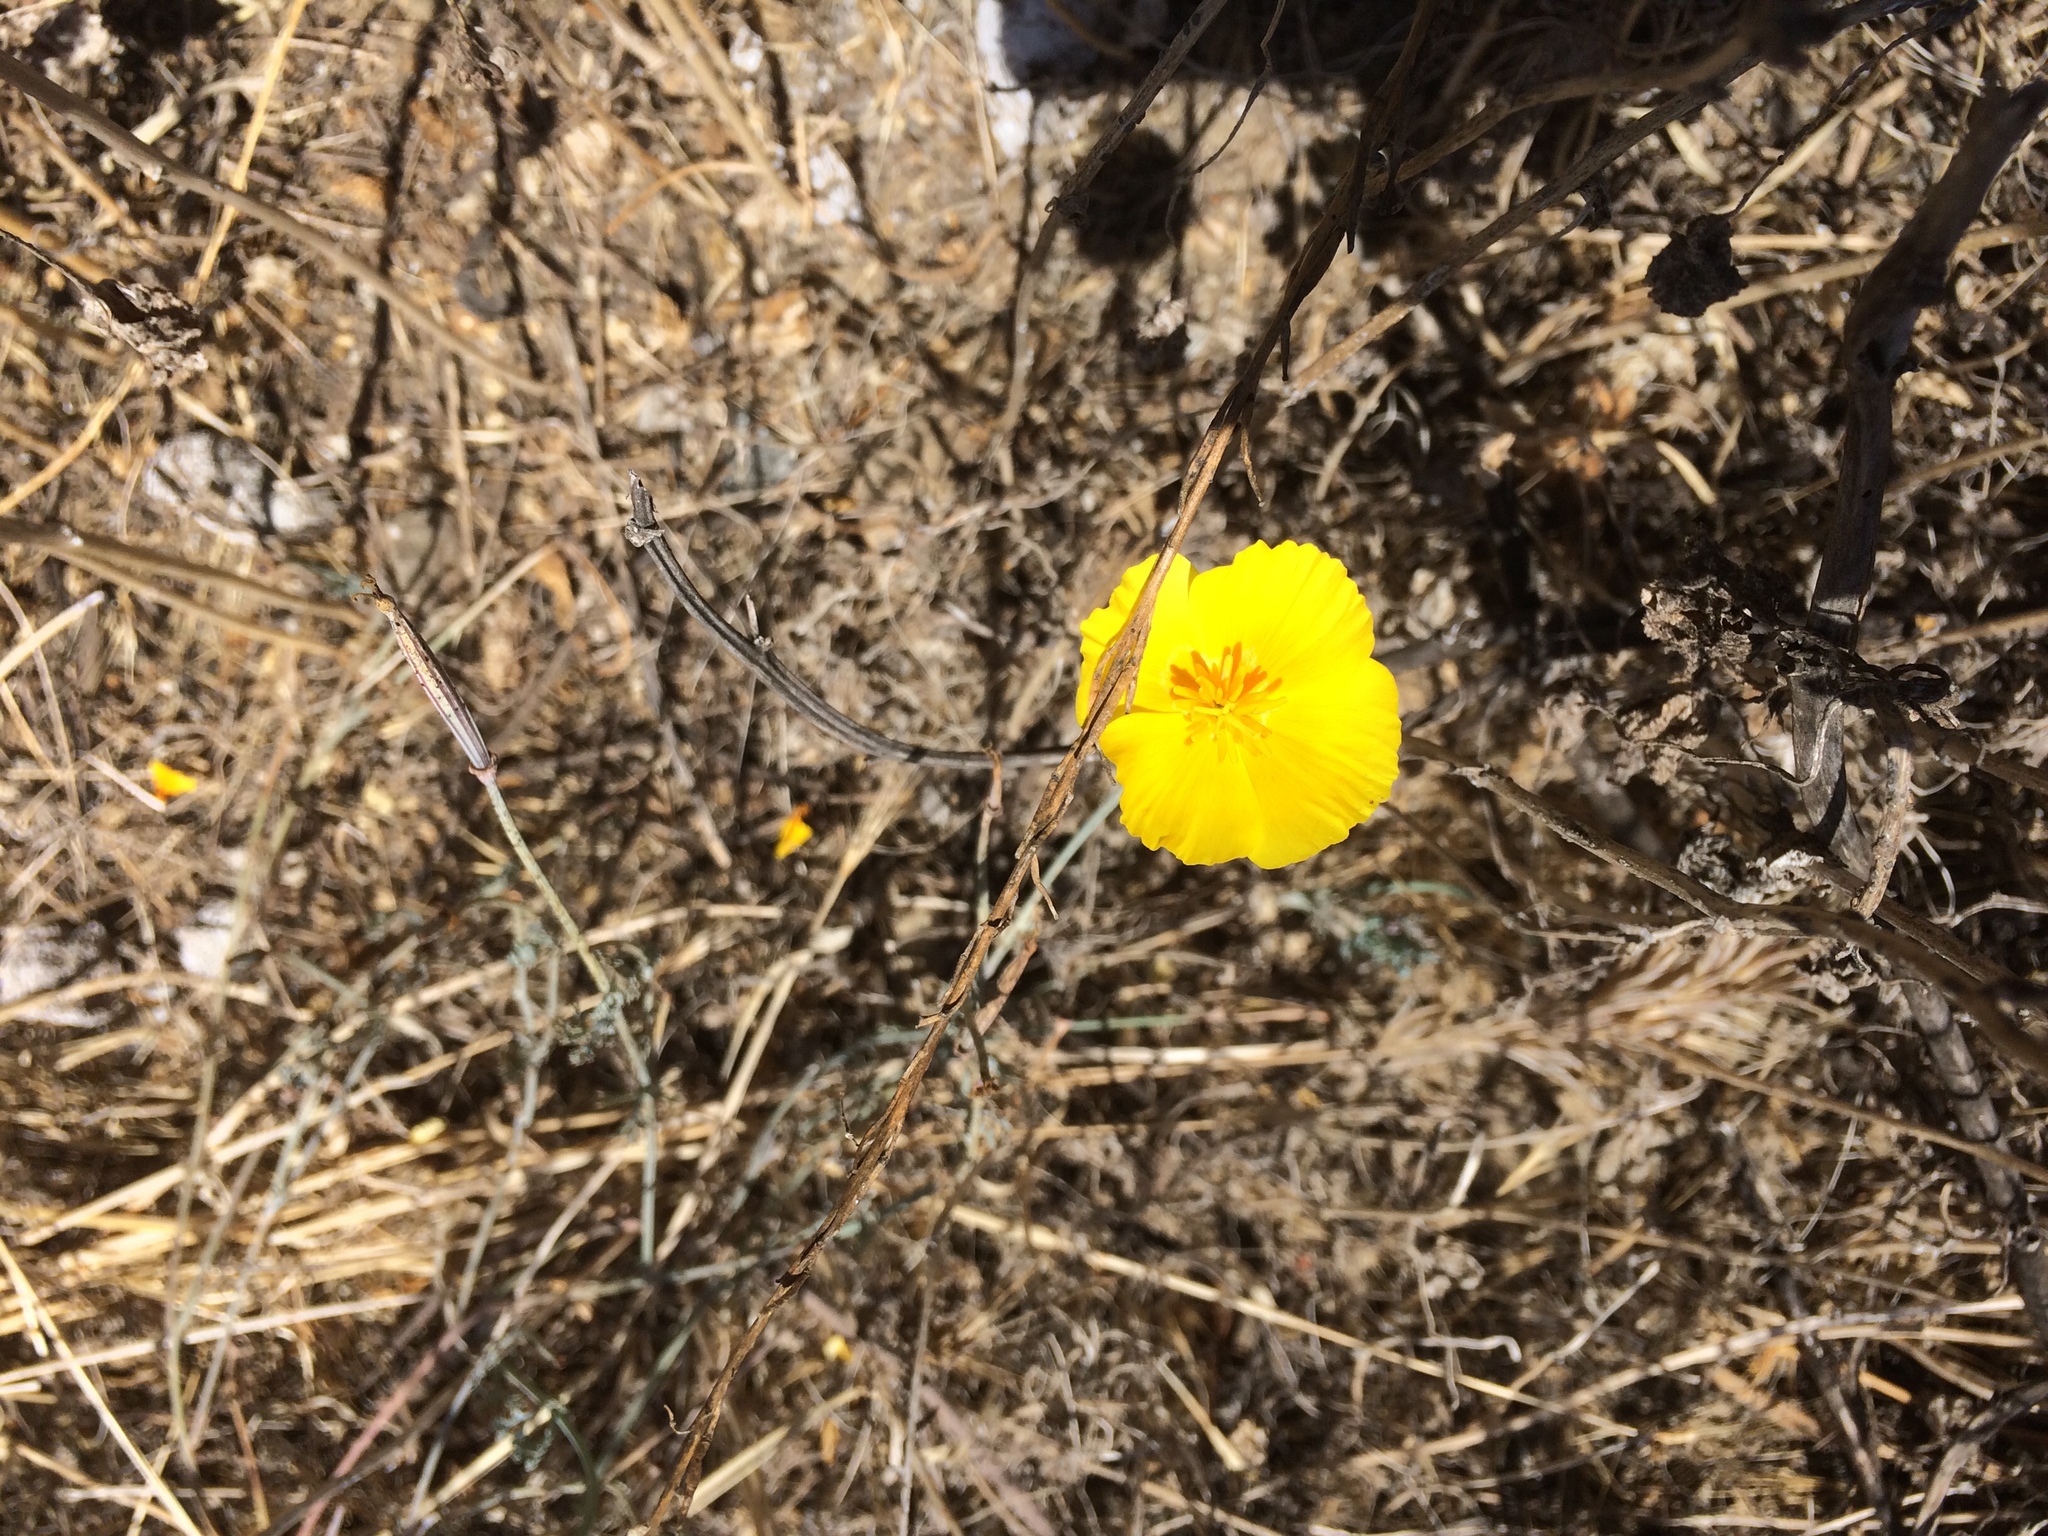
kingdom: Plantae
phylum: Tracheophyta
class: Magnoliopsida
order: Ranunculales
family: Papaveraceae
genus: Eschscholzia
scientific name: Eschscholzia californica
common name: California poppy
